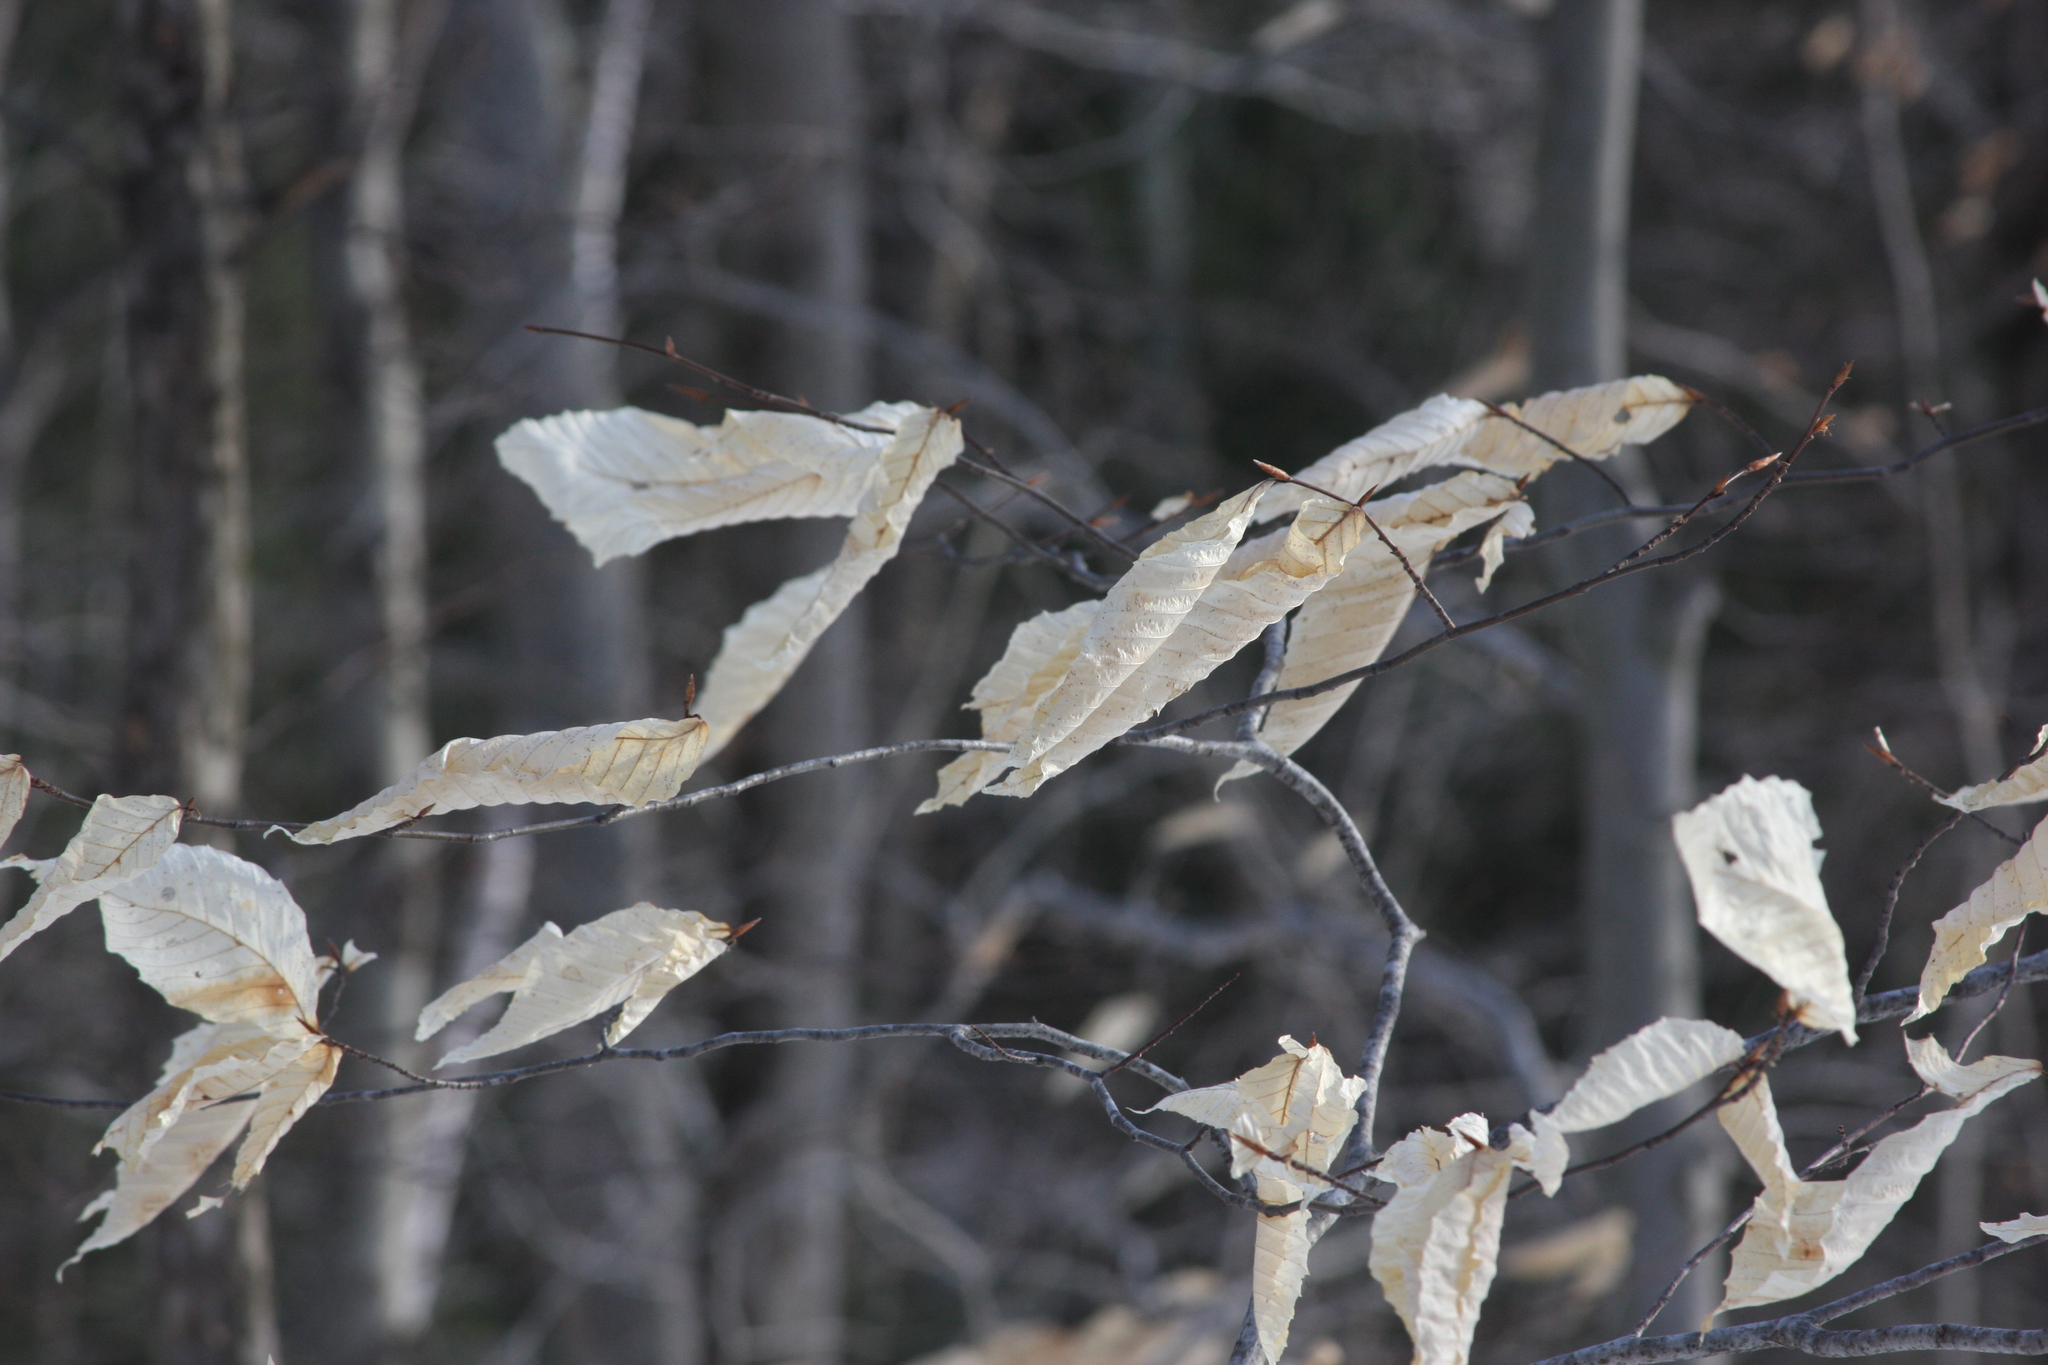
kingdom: Plantae
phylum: Tracheophyta
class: Magnoliopsida
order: Fagales
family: Fagaceae
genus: Fagus
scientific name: Fagus grandifolia
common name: American beech
